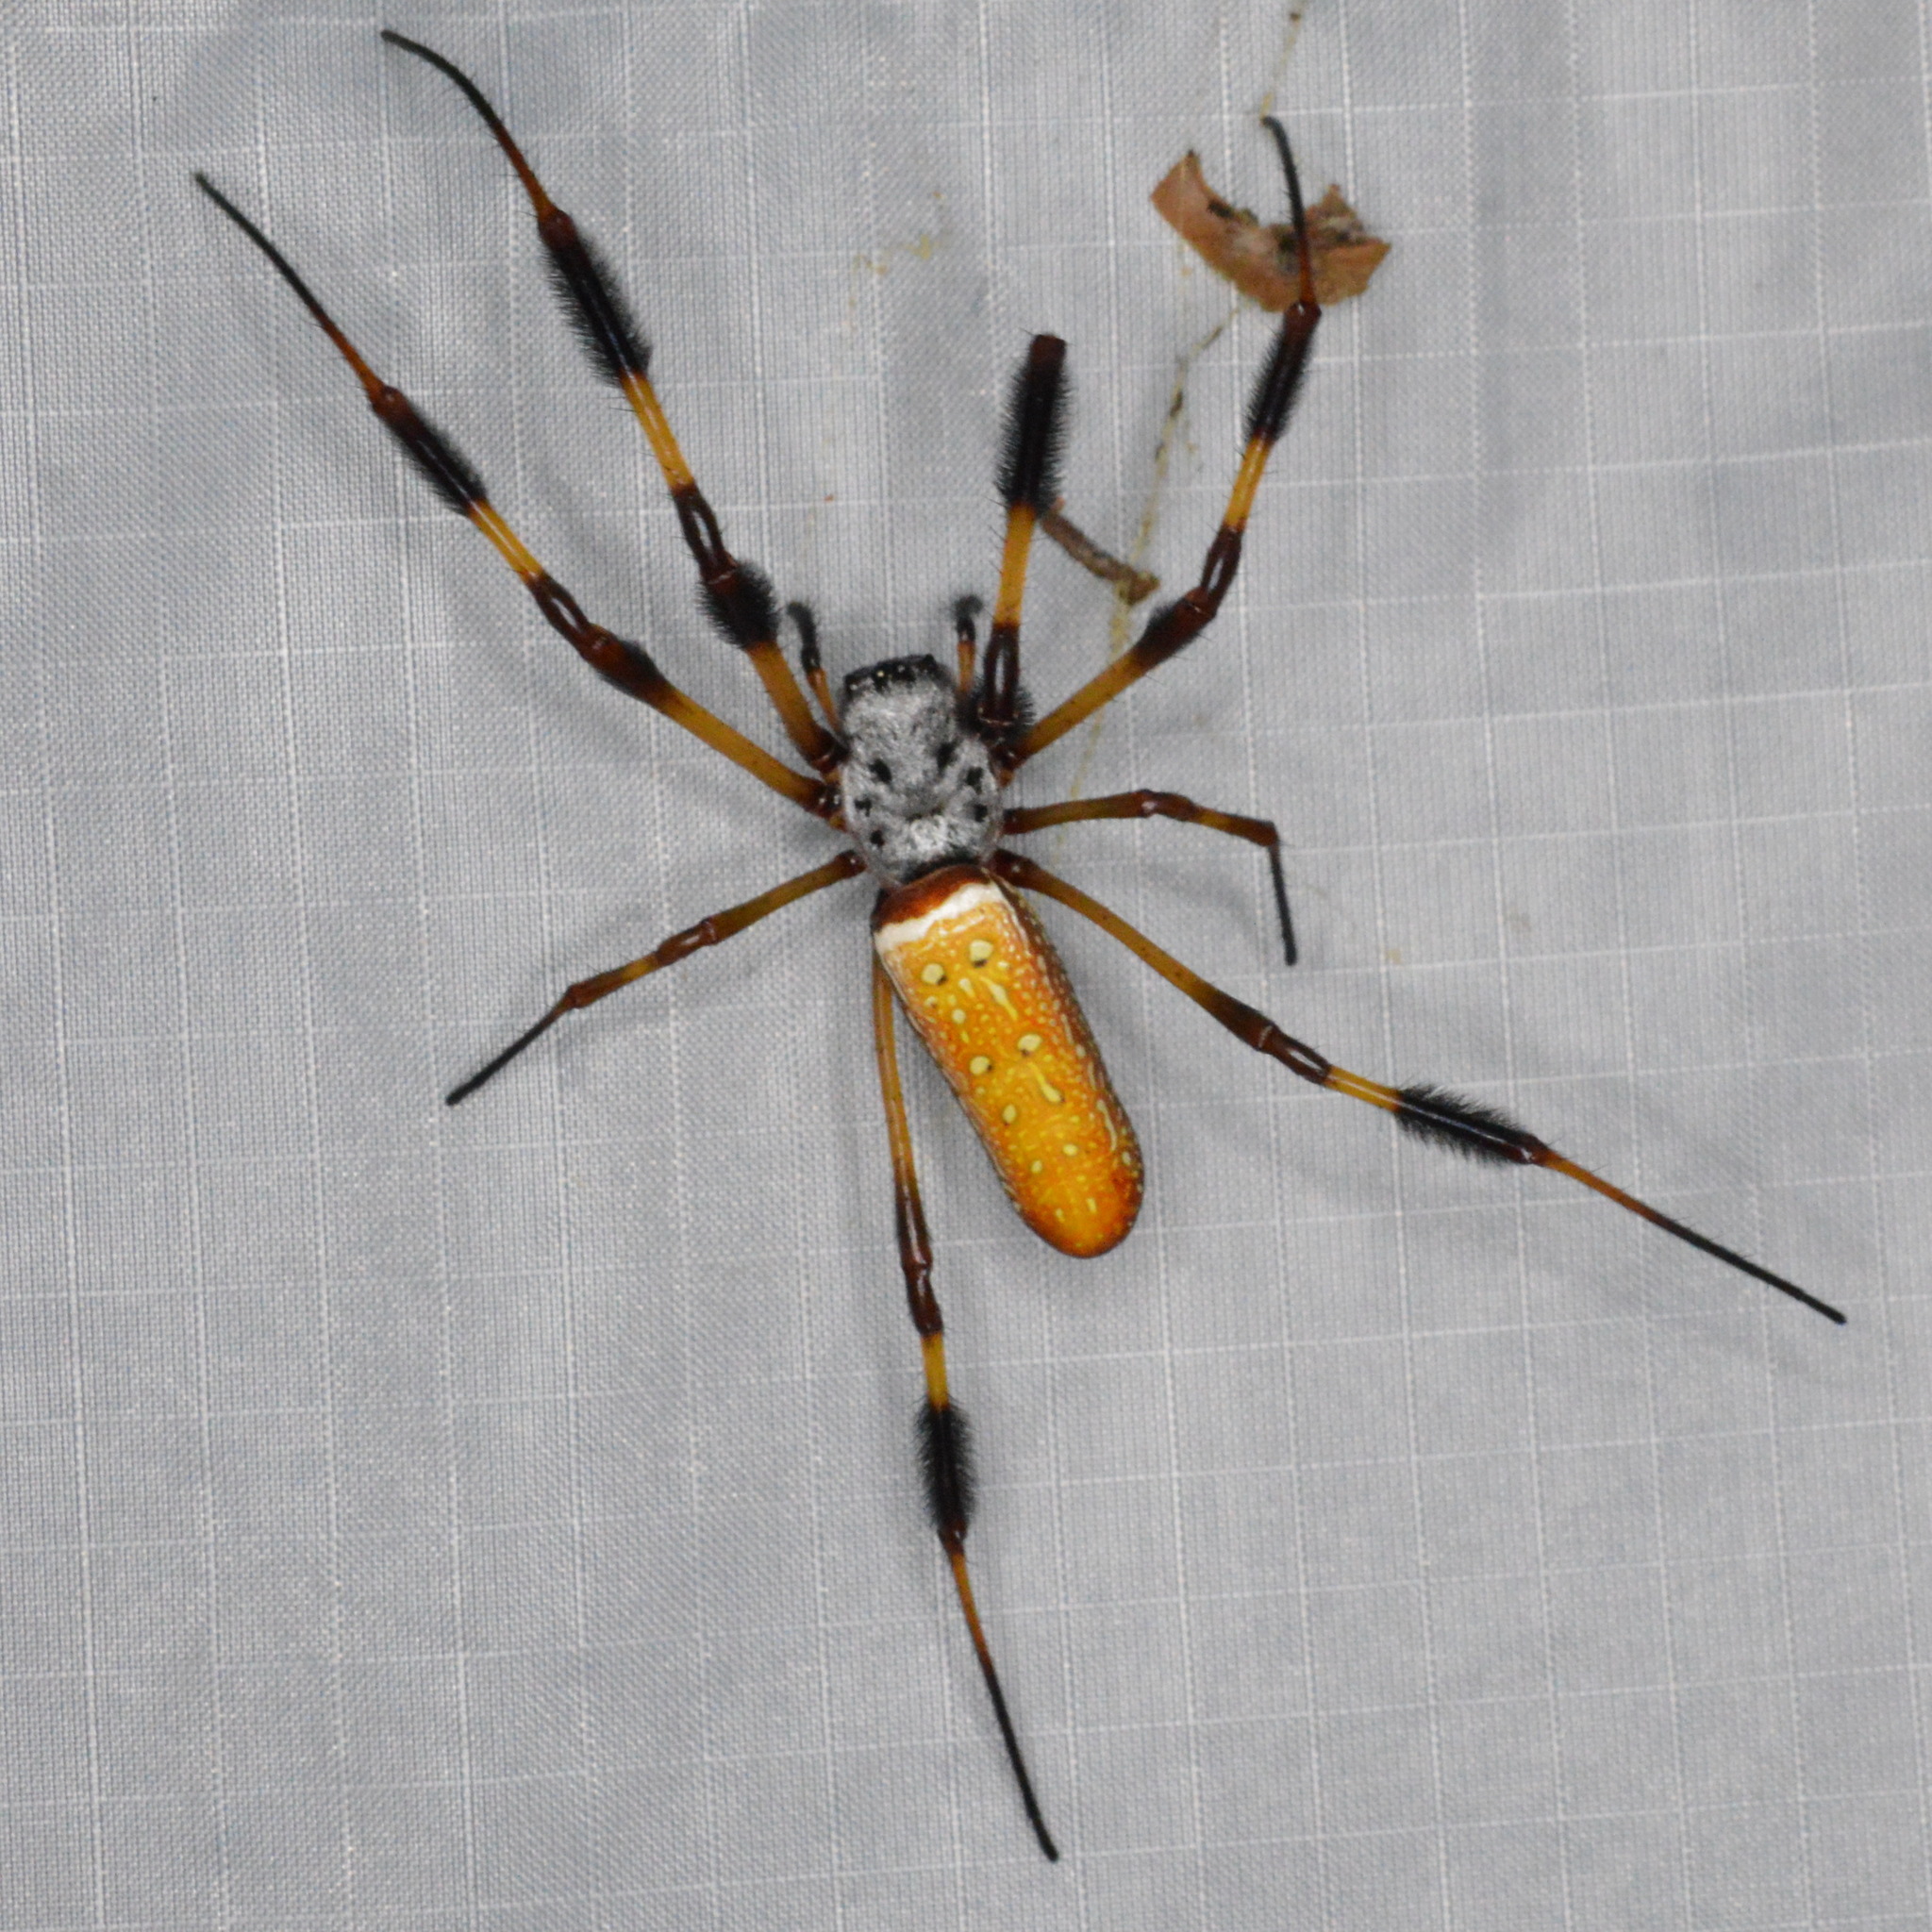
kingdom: Animalia
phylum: Arthropoda
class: Arachnida
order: Araneae
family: Araneidae
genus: Trichonephila
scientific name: Trichonephila clavipes
